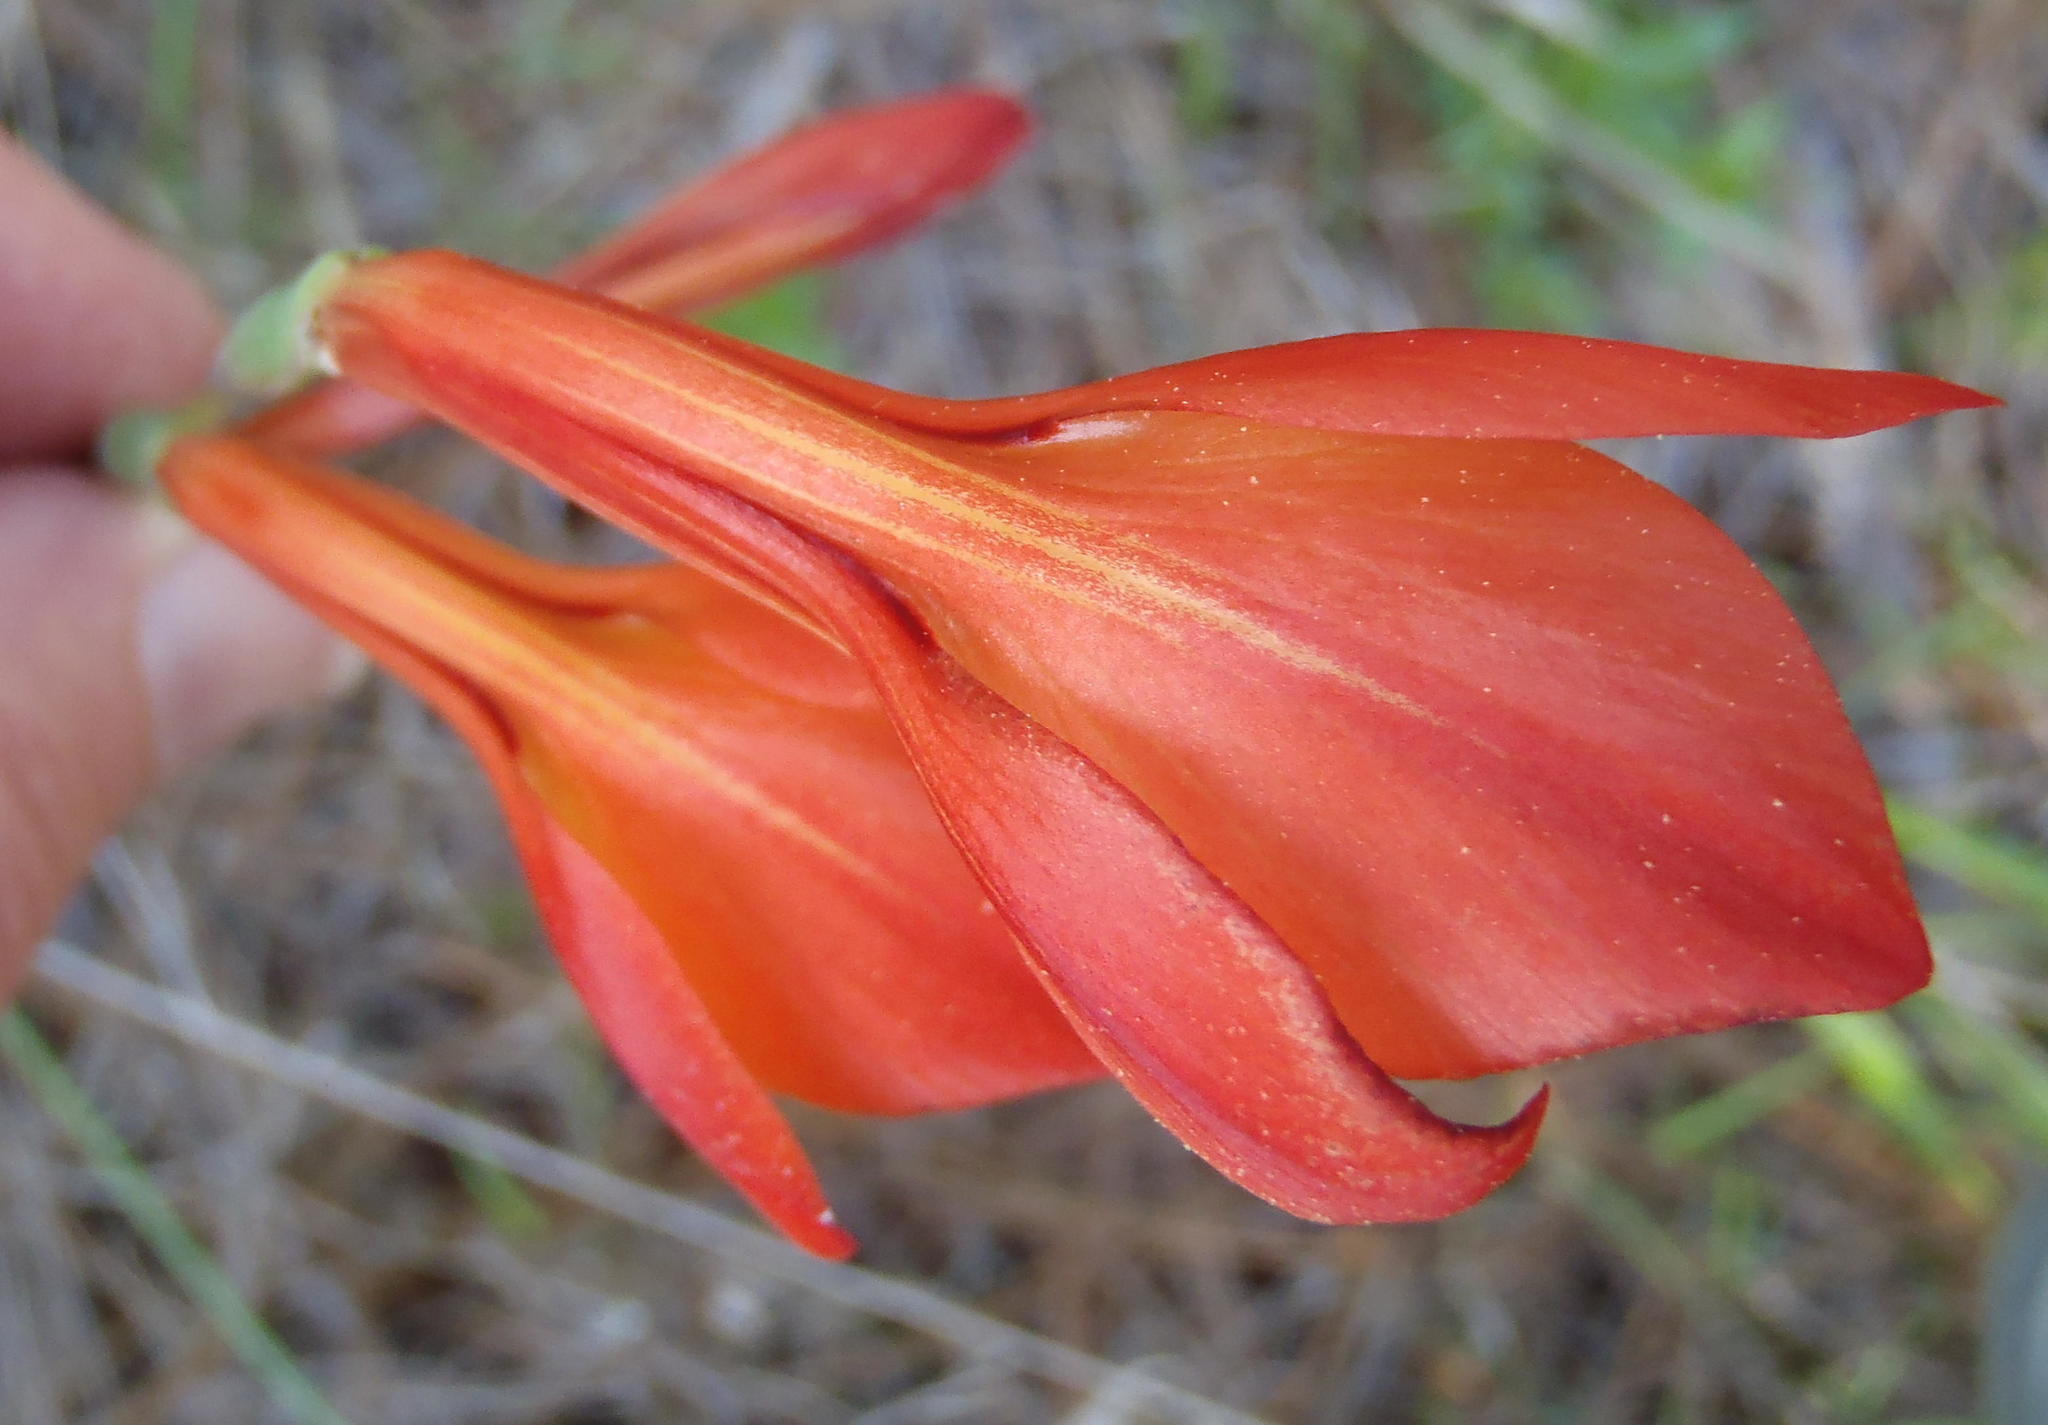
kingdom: Plantae
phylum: Tracheophyta
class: Liliopsida
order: Asparagales
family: Iridaceae
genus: Gladiolus
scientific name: Gladiolus huttonii
